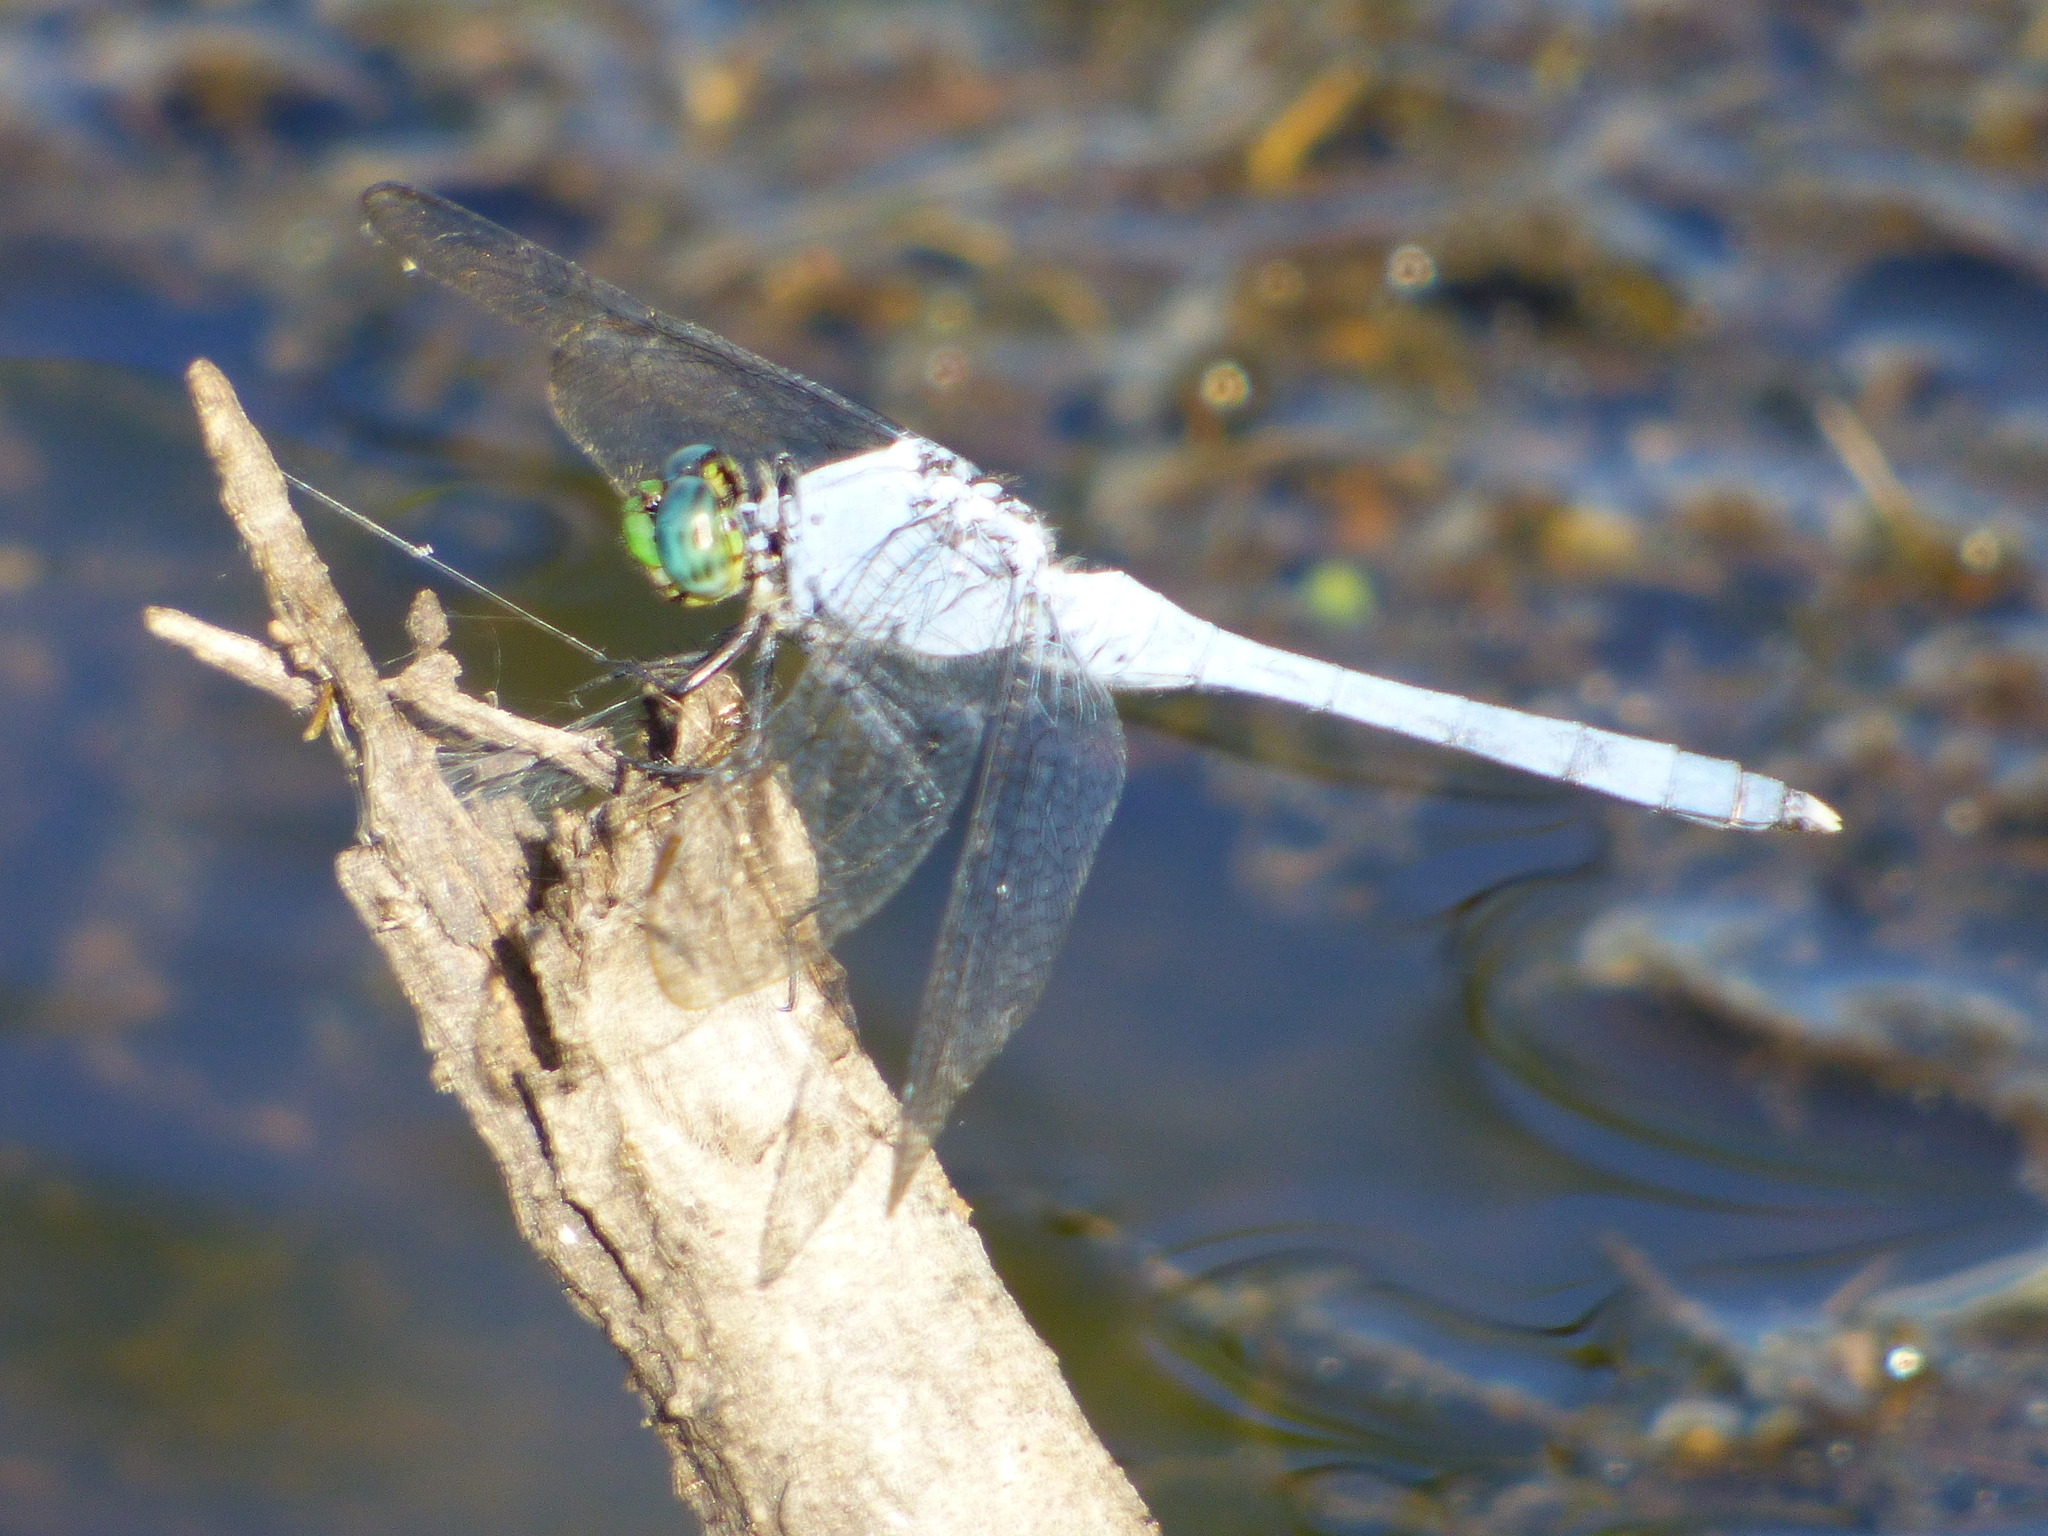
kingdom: Animalia
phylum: Arthropoda
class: Insecta
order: Odonata
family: Libellulidae
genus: Erythemis
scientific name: Erythemis simplicicollis
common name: Eastern pondhawk
